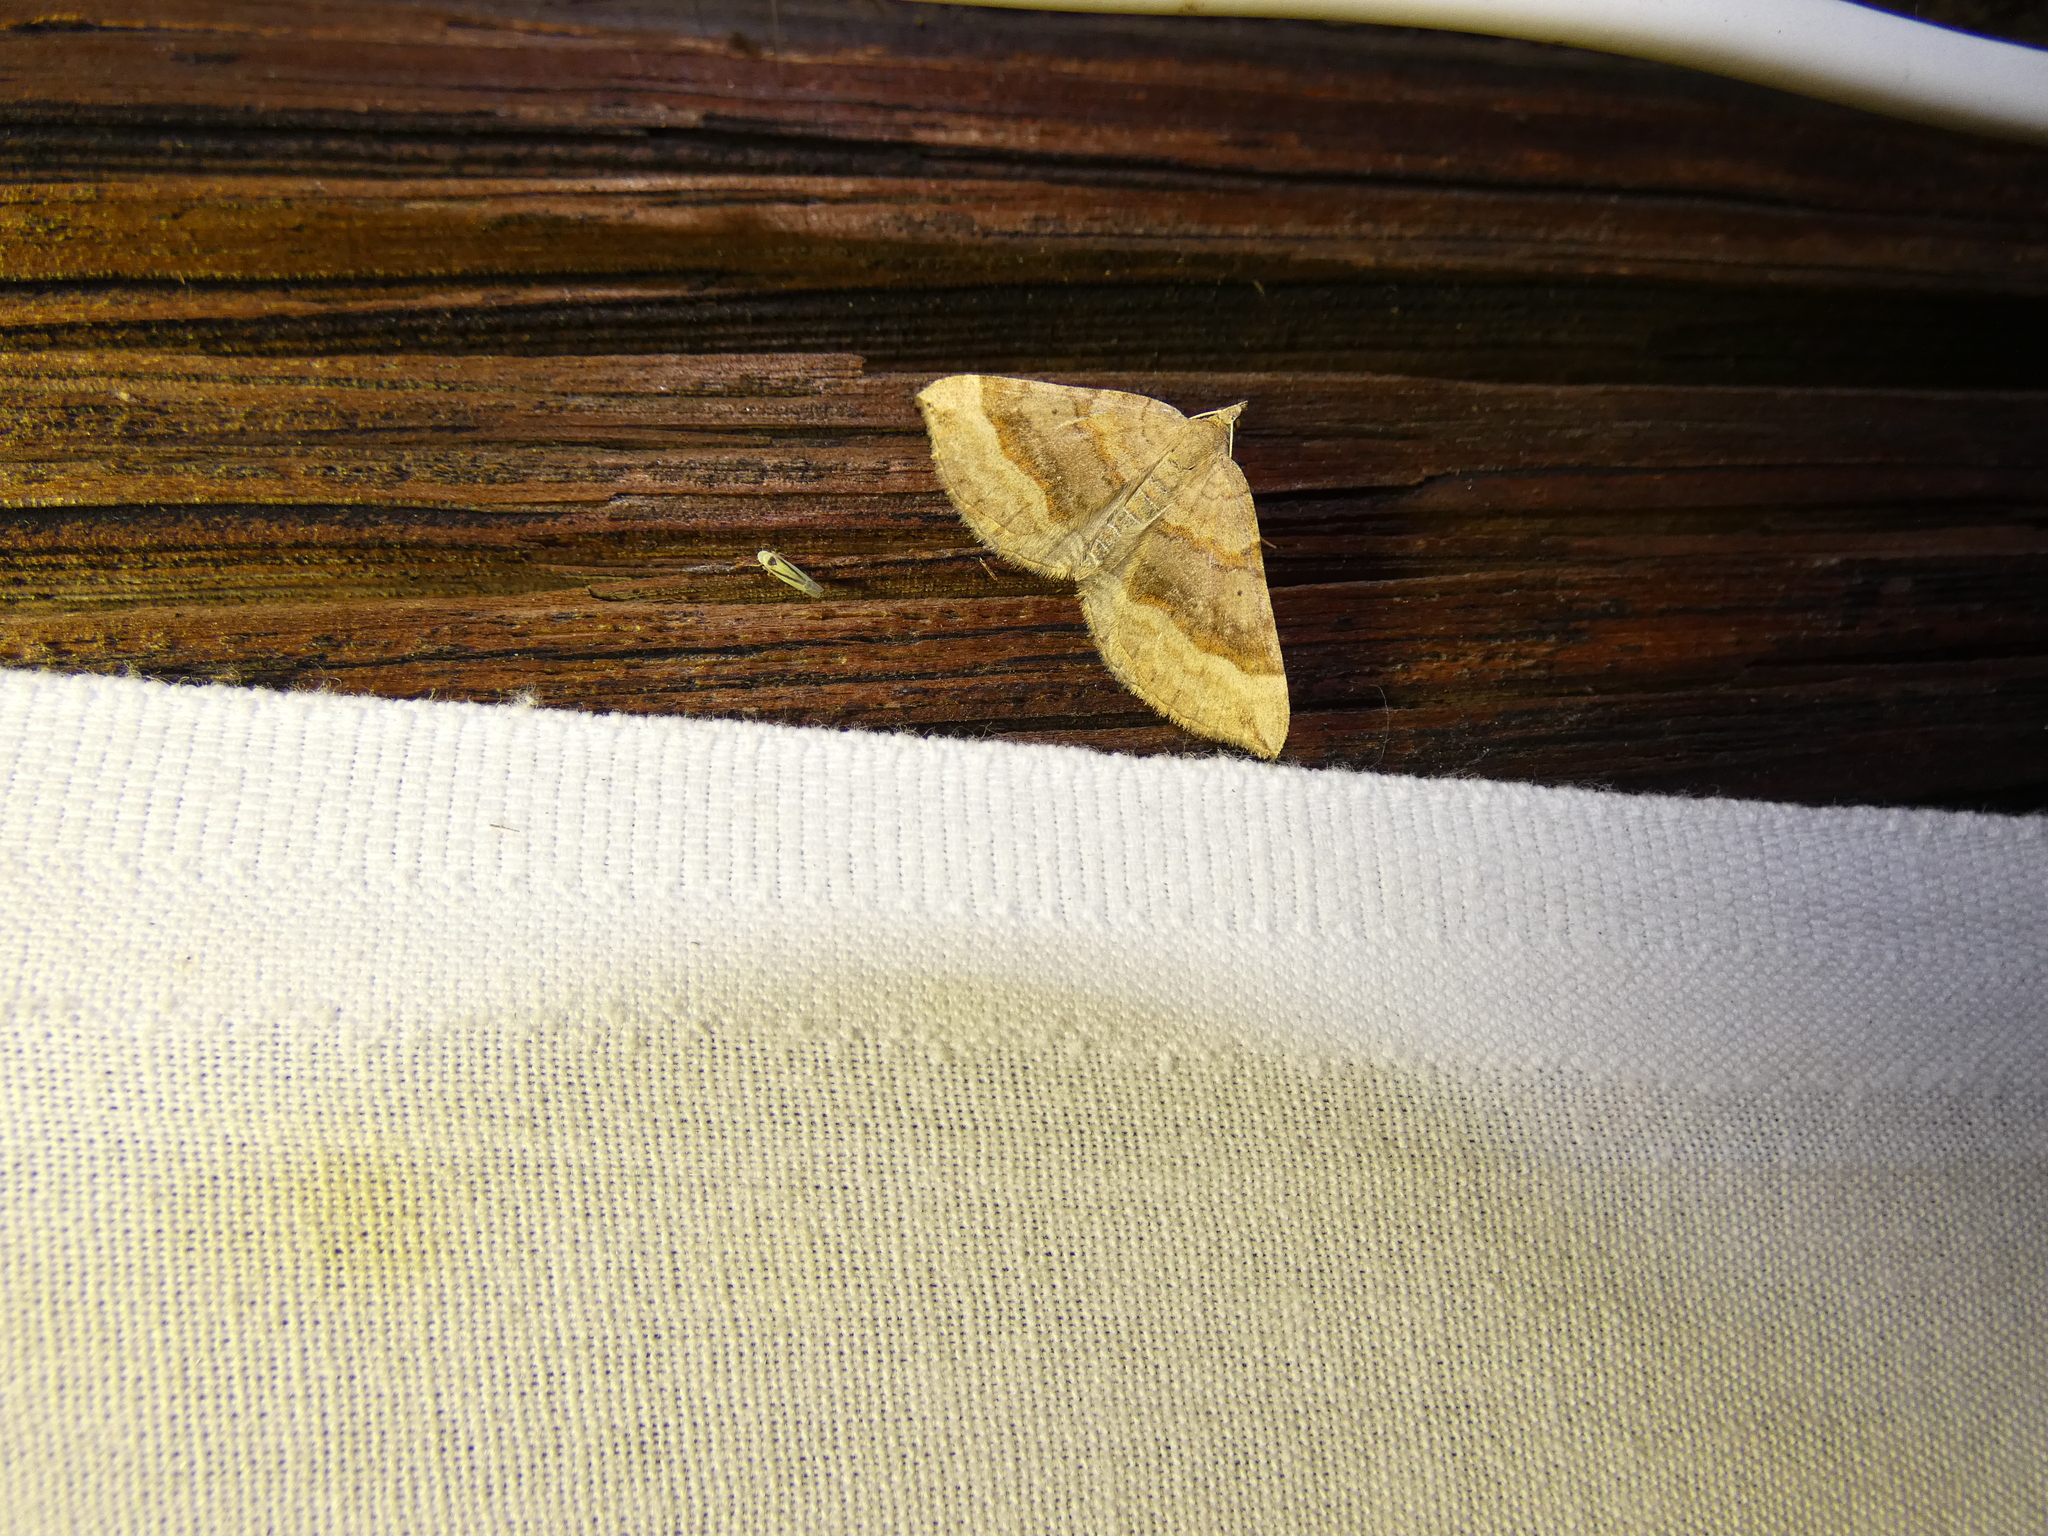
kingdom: Animalia
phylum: Arthropoda
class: Insecta
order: Lepidoptera
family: Geometridae
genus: Scotopteryx
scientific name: Scotopteryx chenopodiata
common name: Shaded broad-bar
